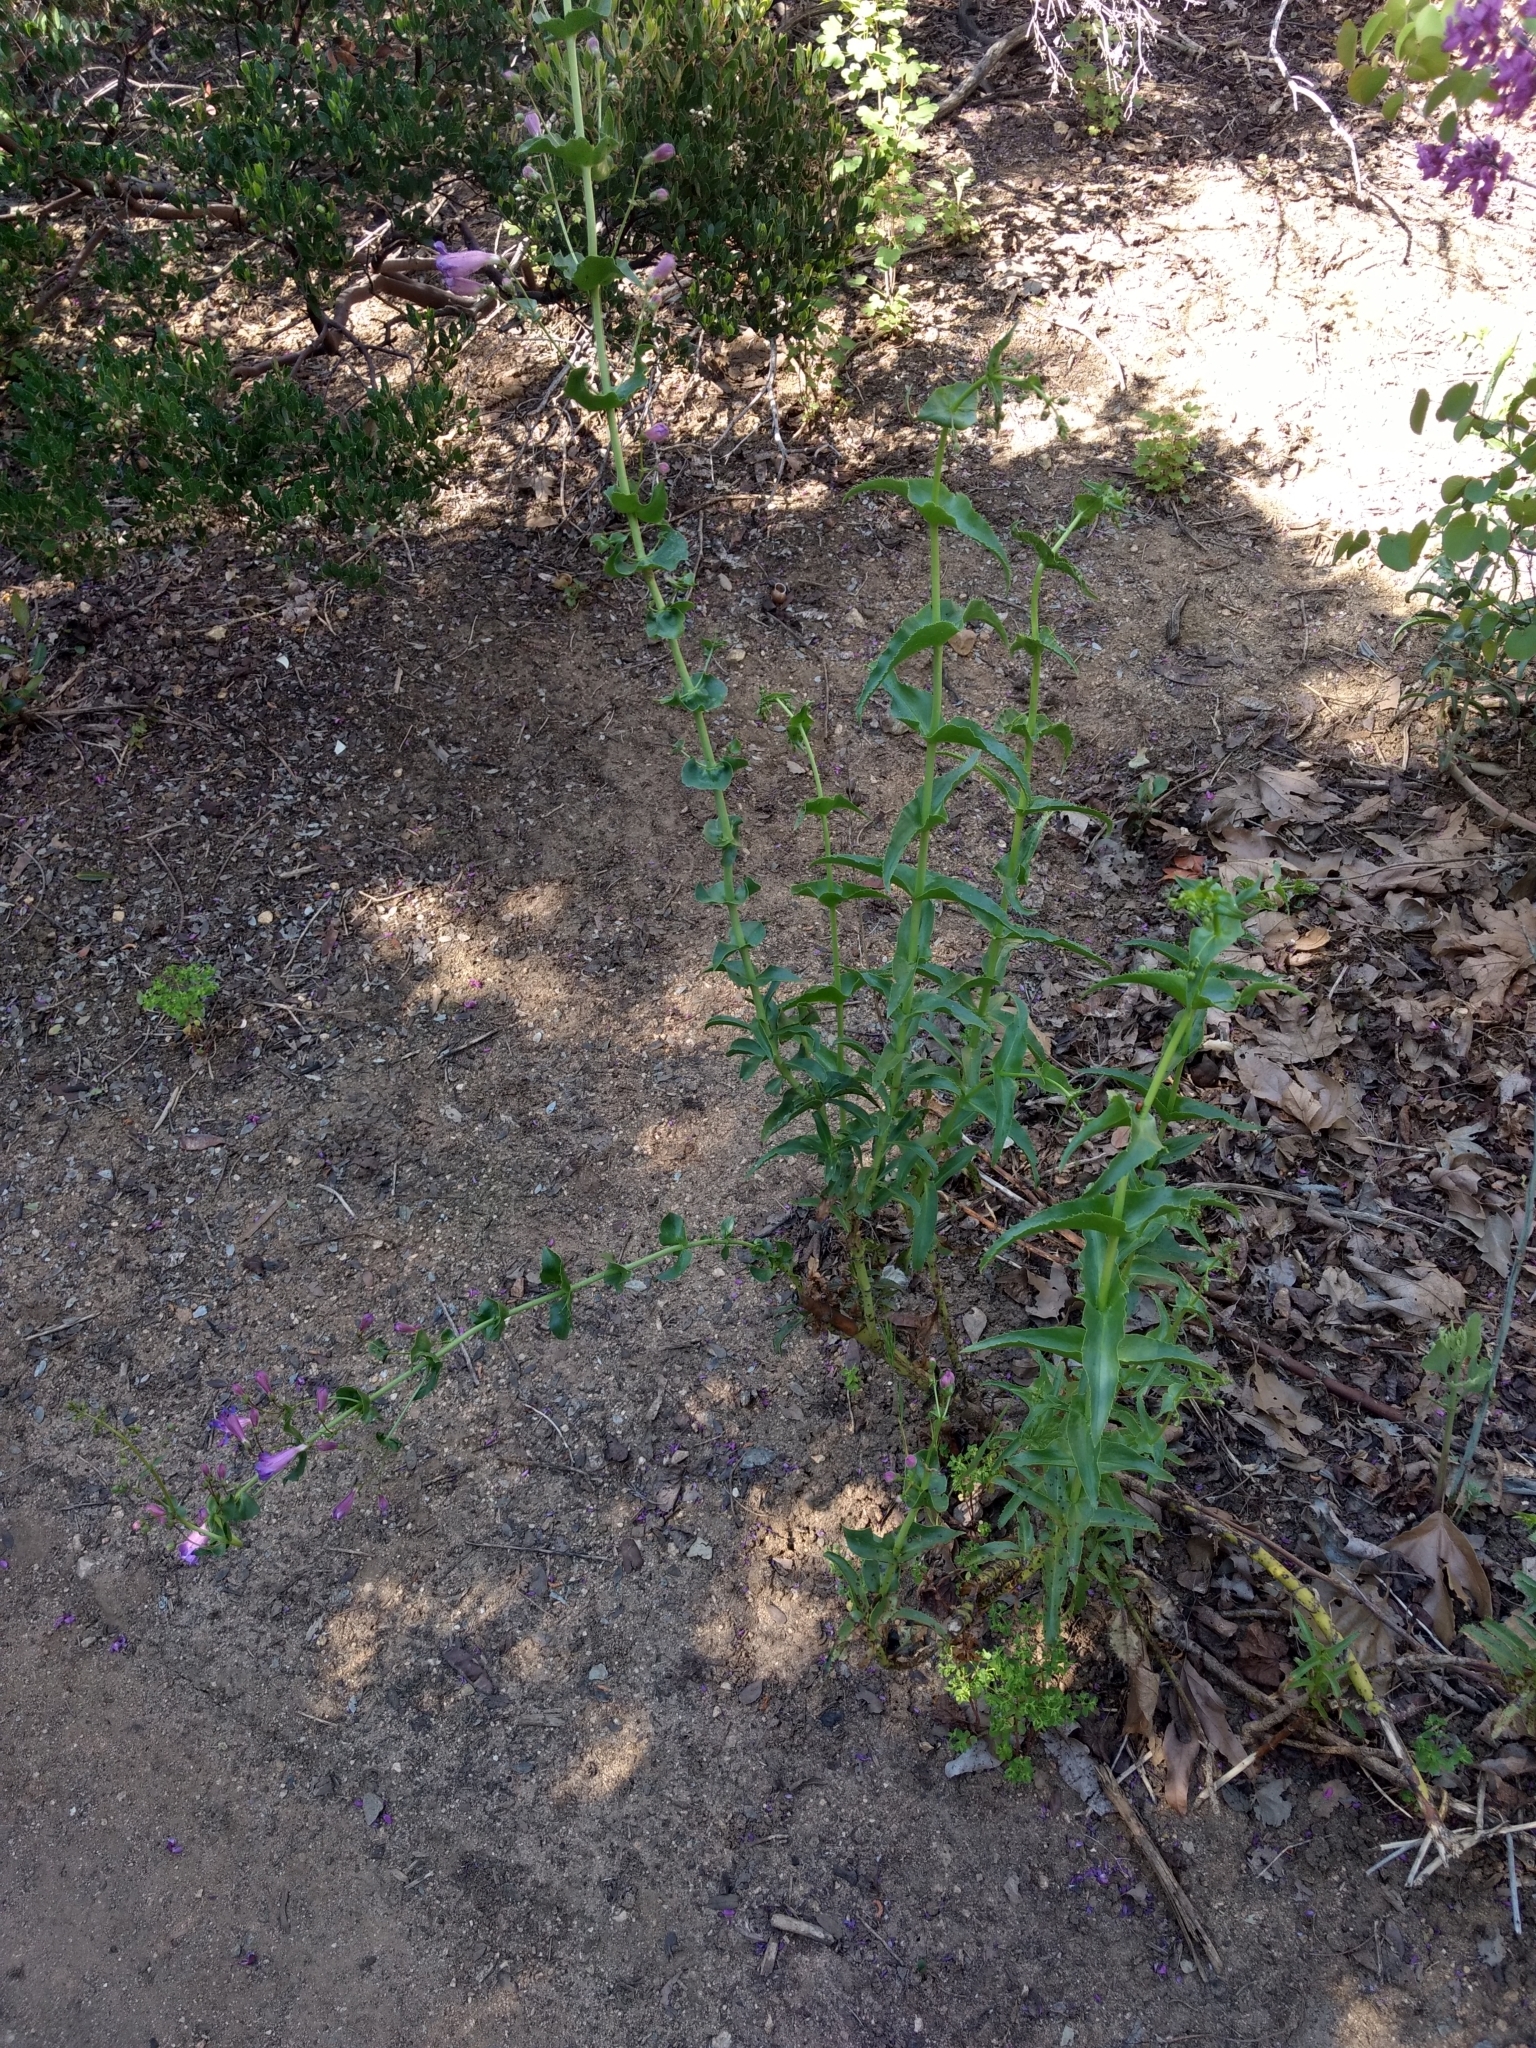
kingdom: Plantae
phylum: Tracheophyta
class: Magnoliopsida
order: Lamiales
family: Plantaginaceae
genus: Penstemon
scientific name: Penstemon spectabilis
